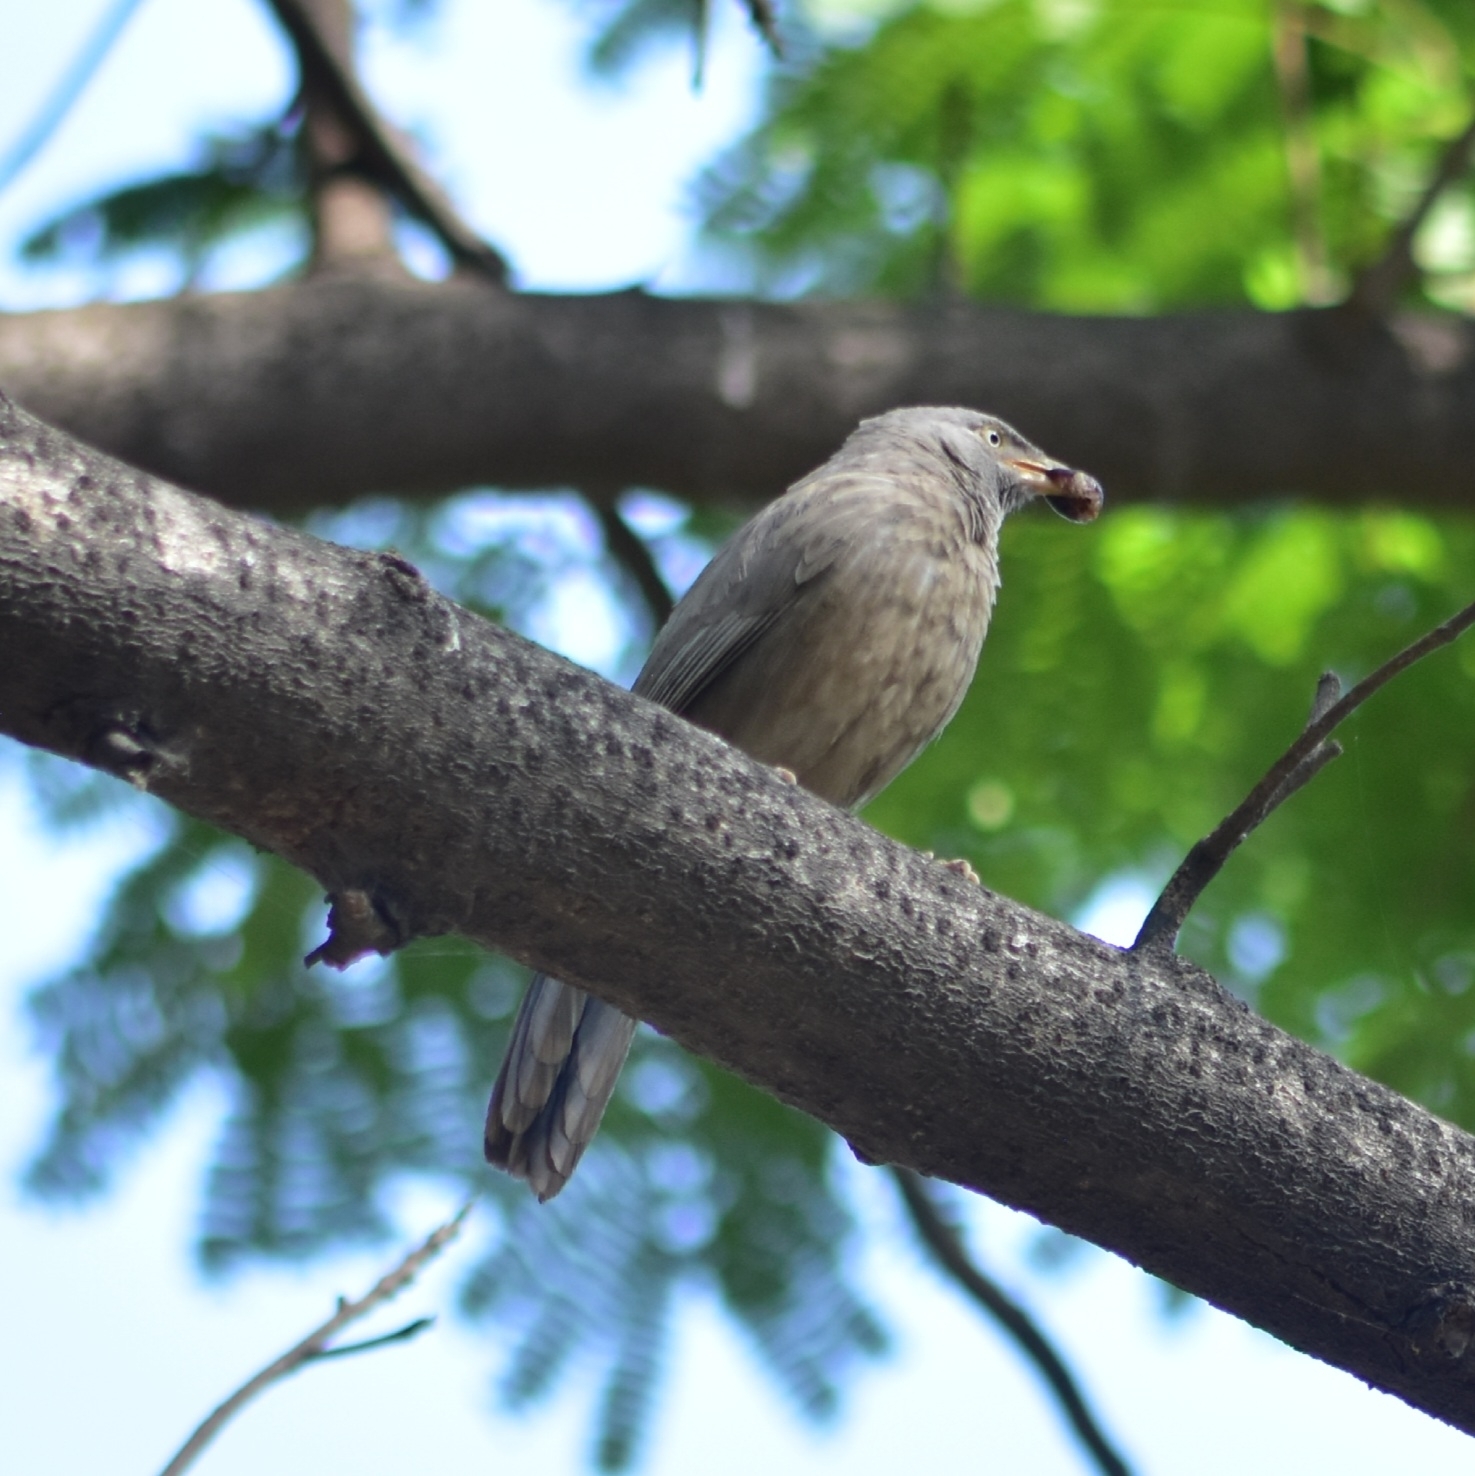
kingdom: Animalia
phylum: Chordata
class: Aves
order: Passeriformes
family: Leiothrichidae
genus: Turdoides
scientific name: Turdoides striata
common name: Jungle babbler
